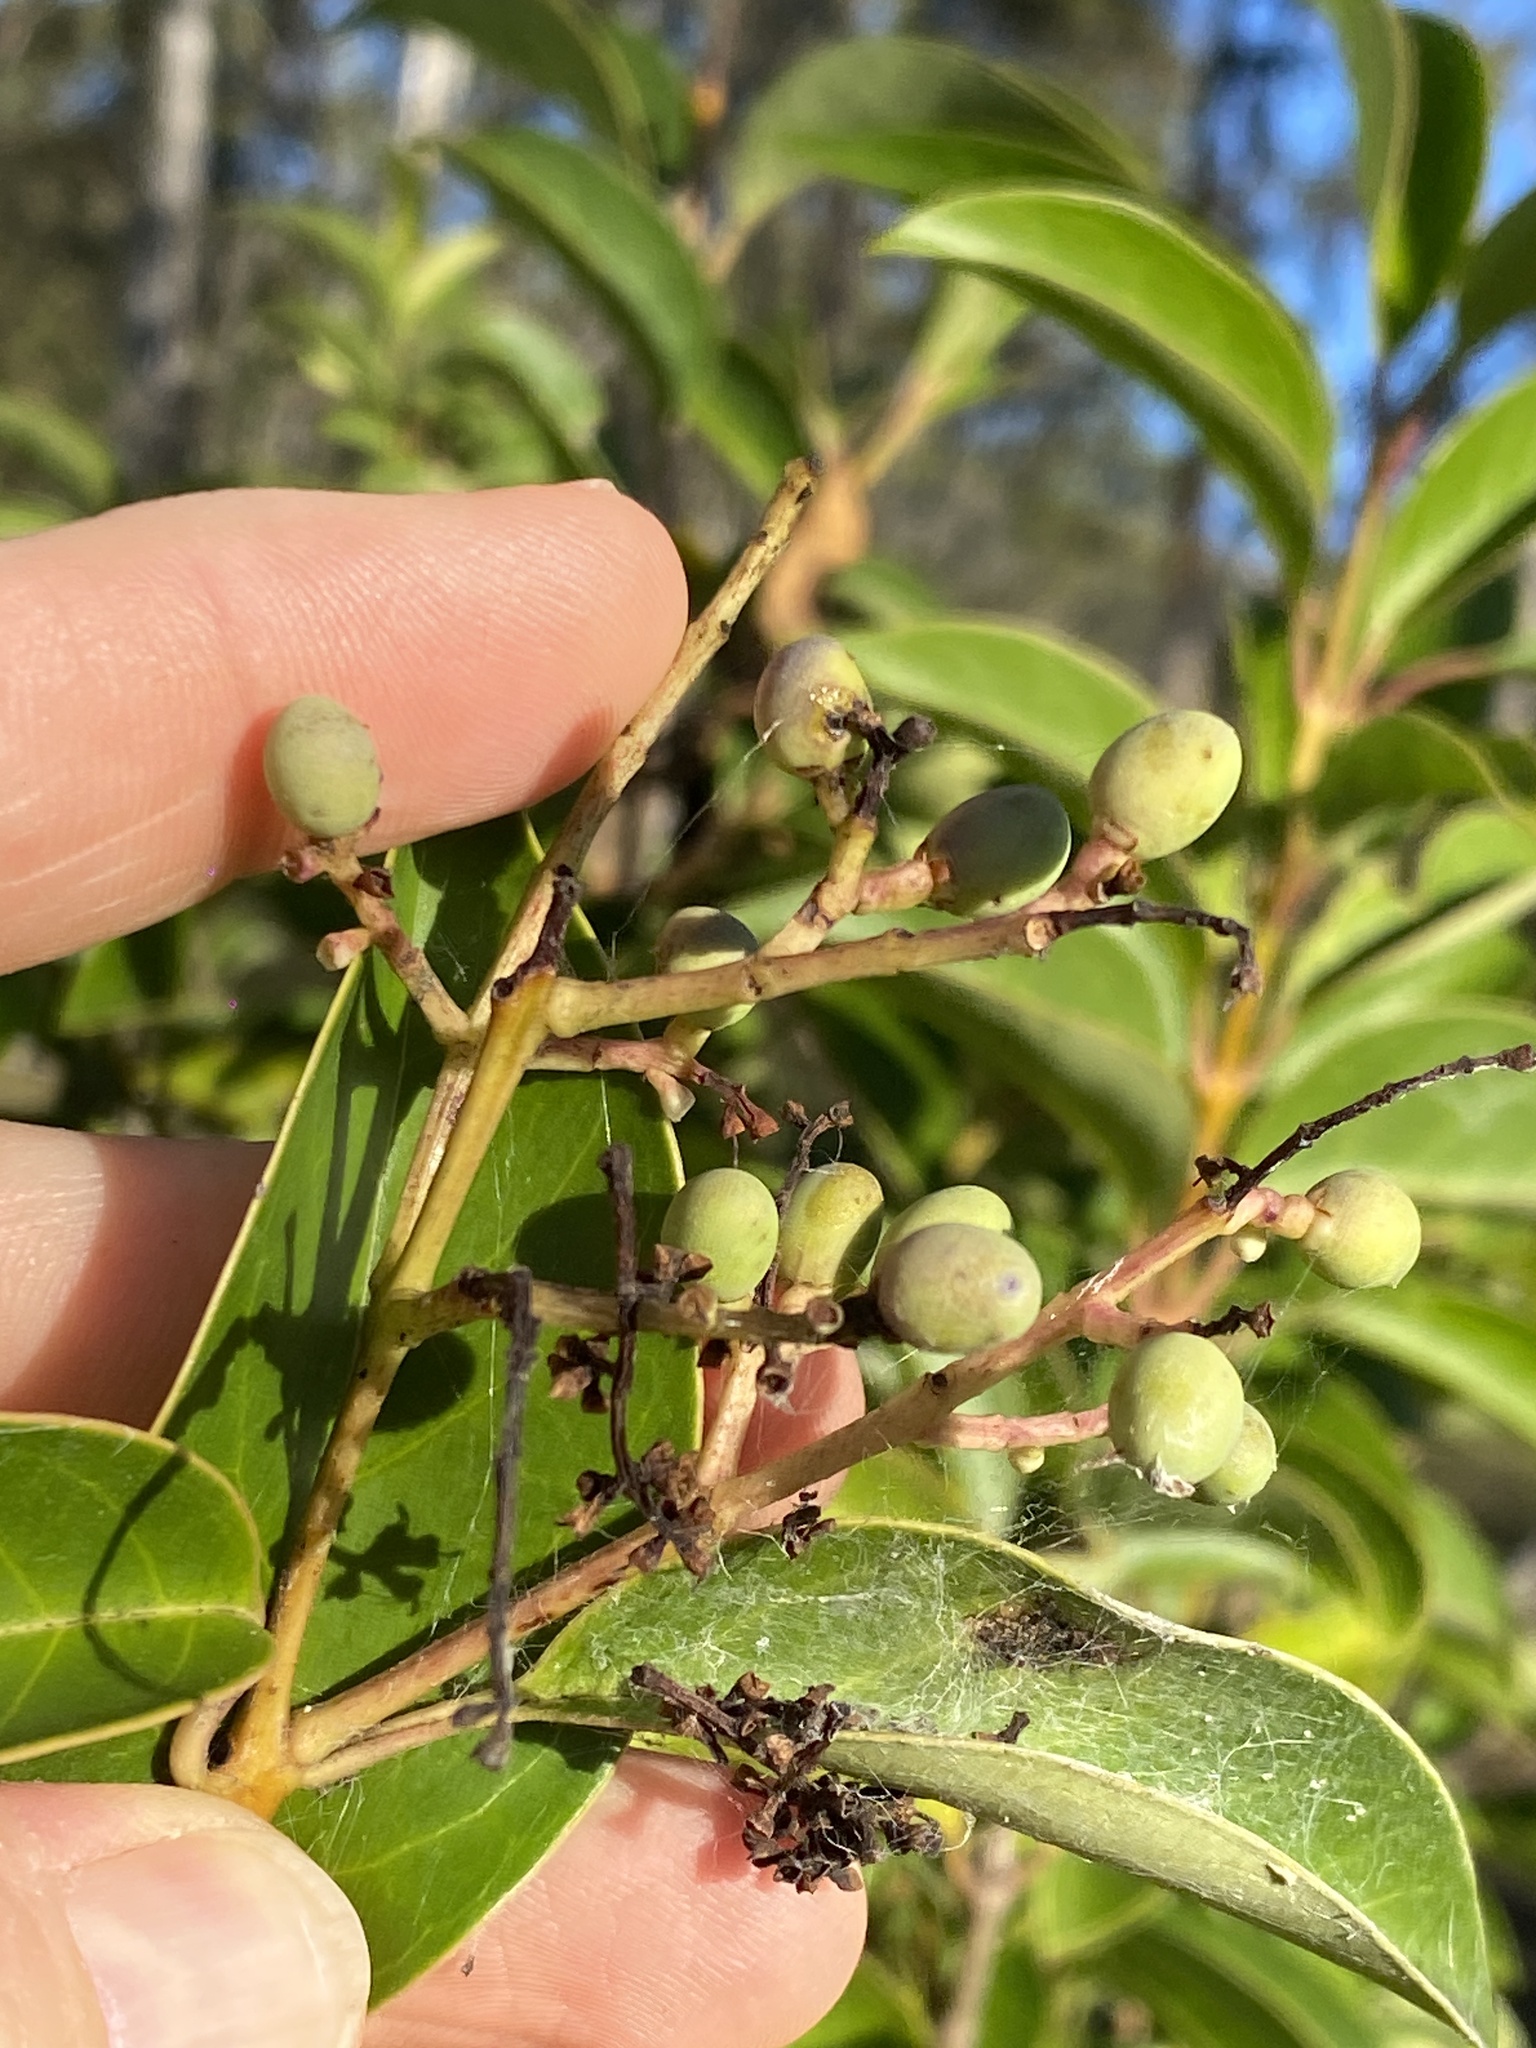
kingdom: Plantae
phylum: Tracheophyta
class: Magnoliopsida
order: Lamiales
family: Oleaceae
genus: Ligustrum
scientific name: Ligustrum lucidum
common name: Glossy privet
